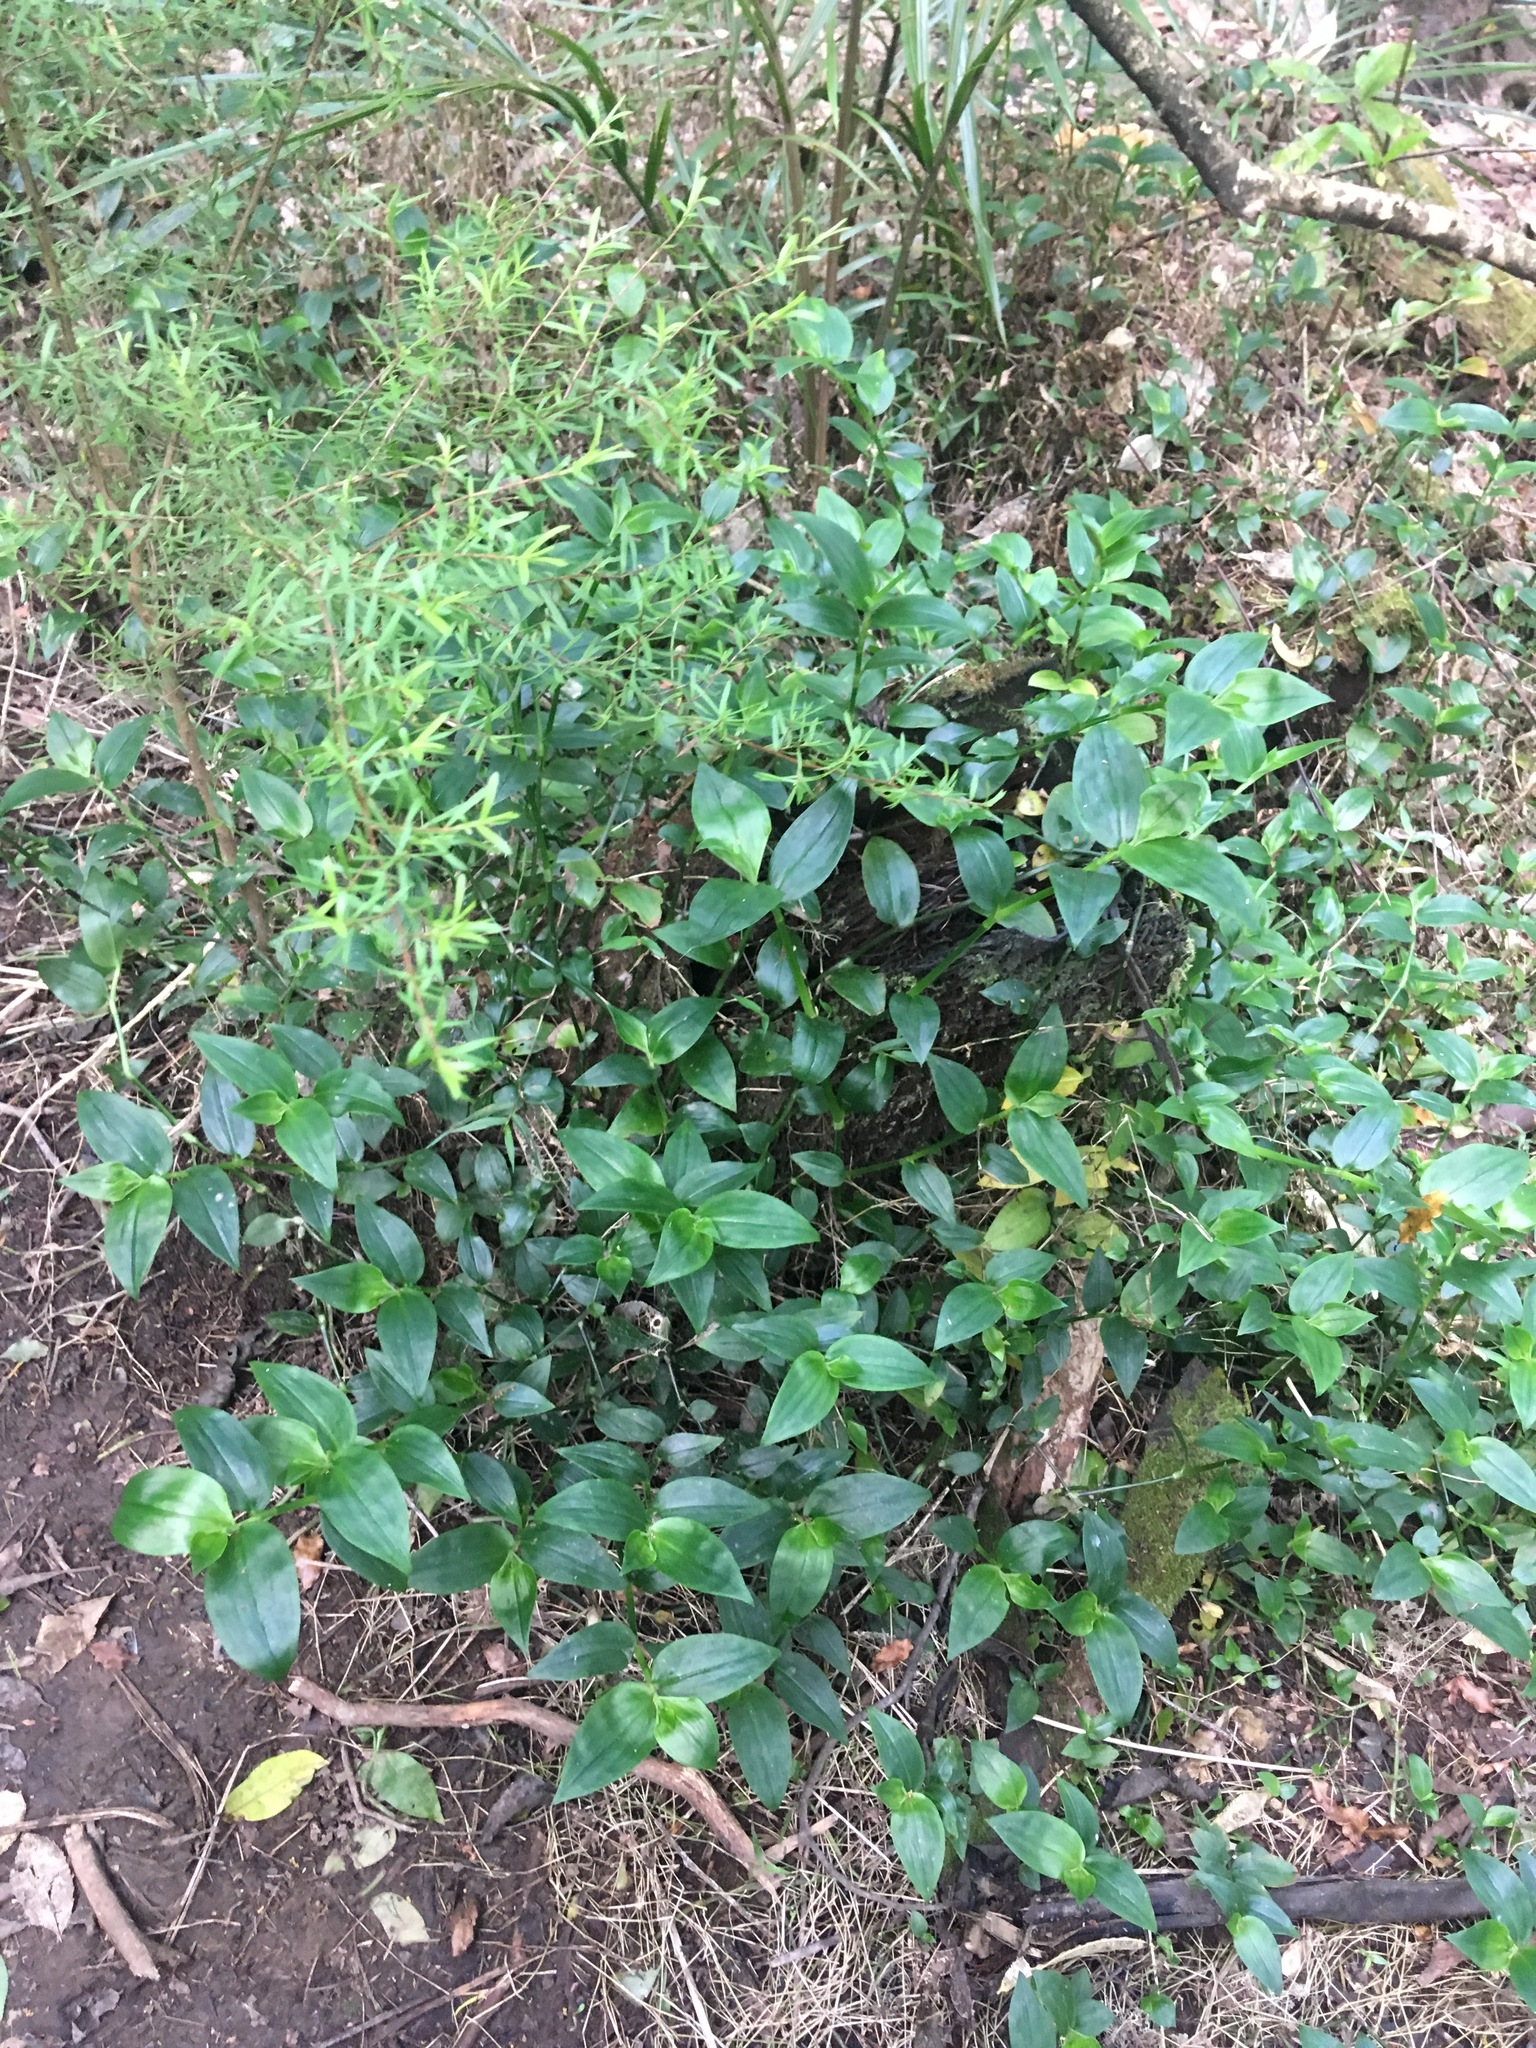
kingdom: Plantae
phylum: Tracheophyta
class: Liliopsida
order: Commelinales
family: Commelinaceae
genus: Tradescantia
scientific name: Tradescantia fluminensis
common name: Wandering-jew
